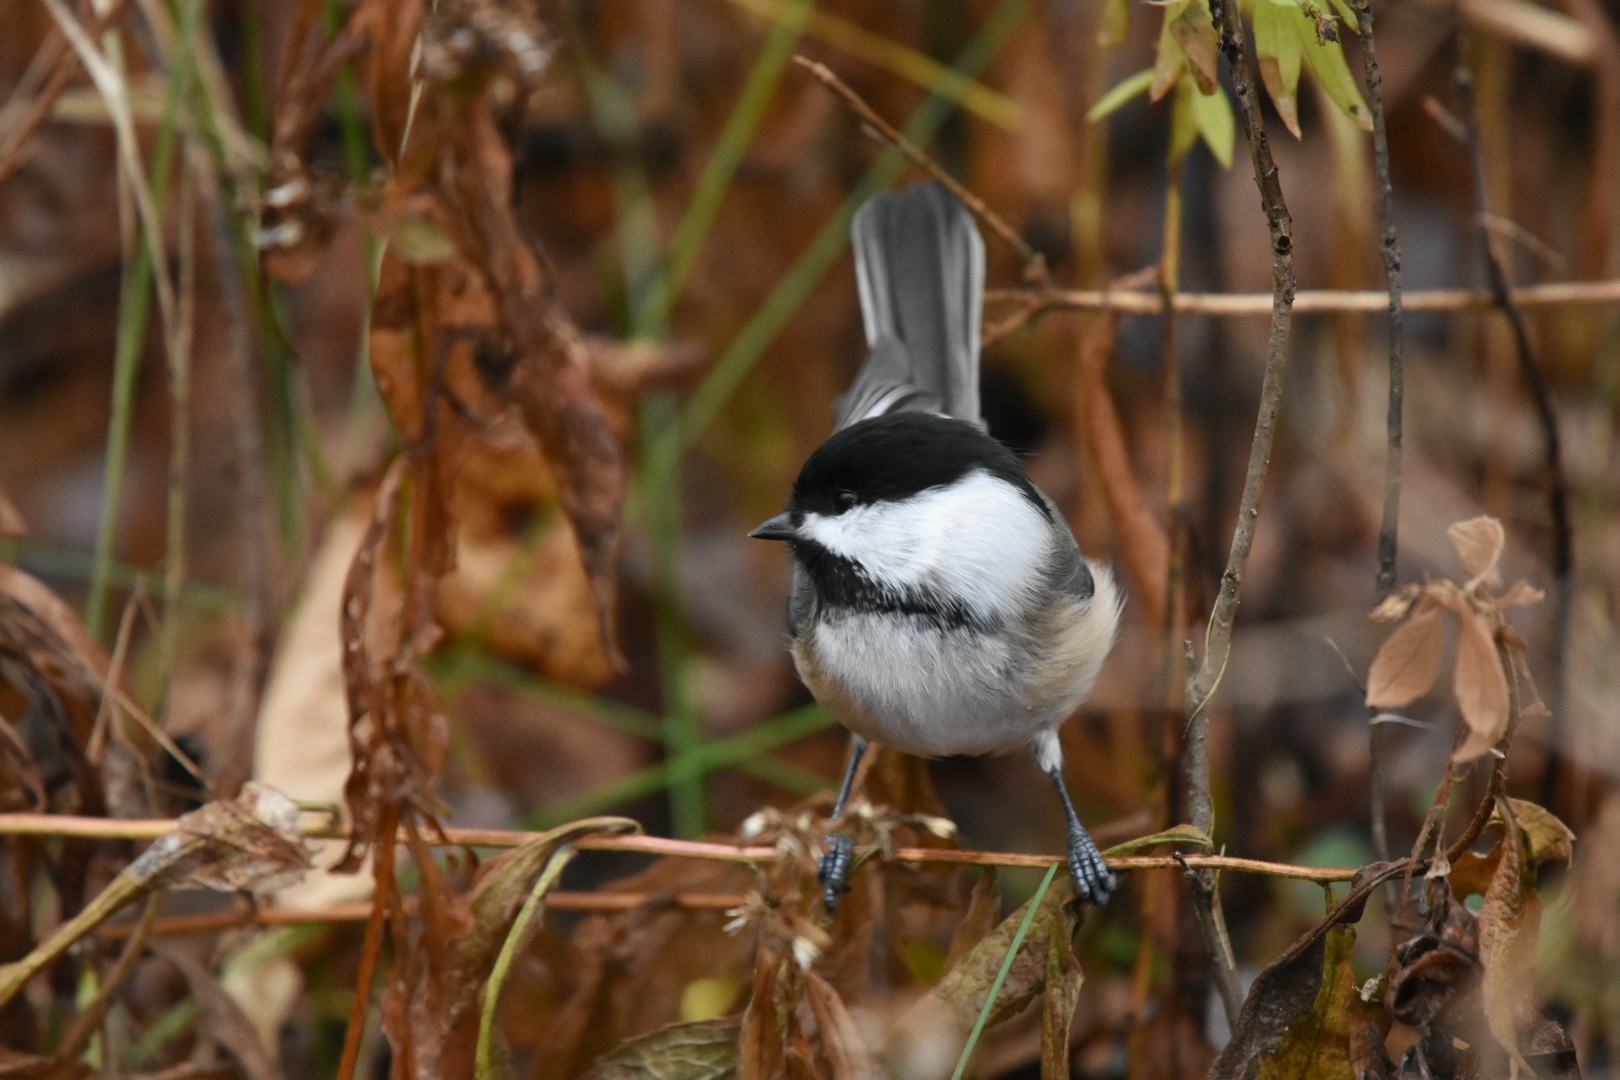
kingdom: Animalia
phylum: Chordata
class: Aves
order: Passeriformes
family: Paridae
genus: Poecile
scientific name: Poecile atricapillus
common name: Black-capped chickadee
